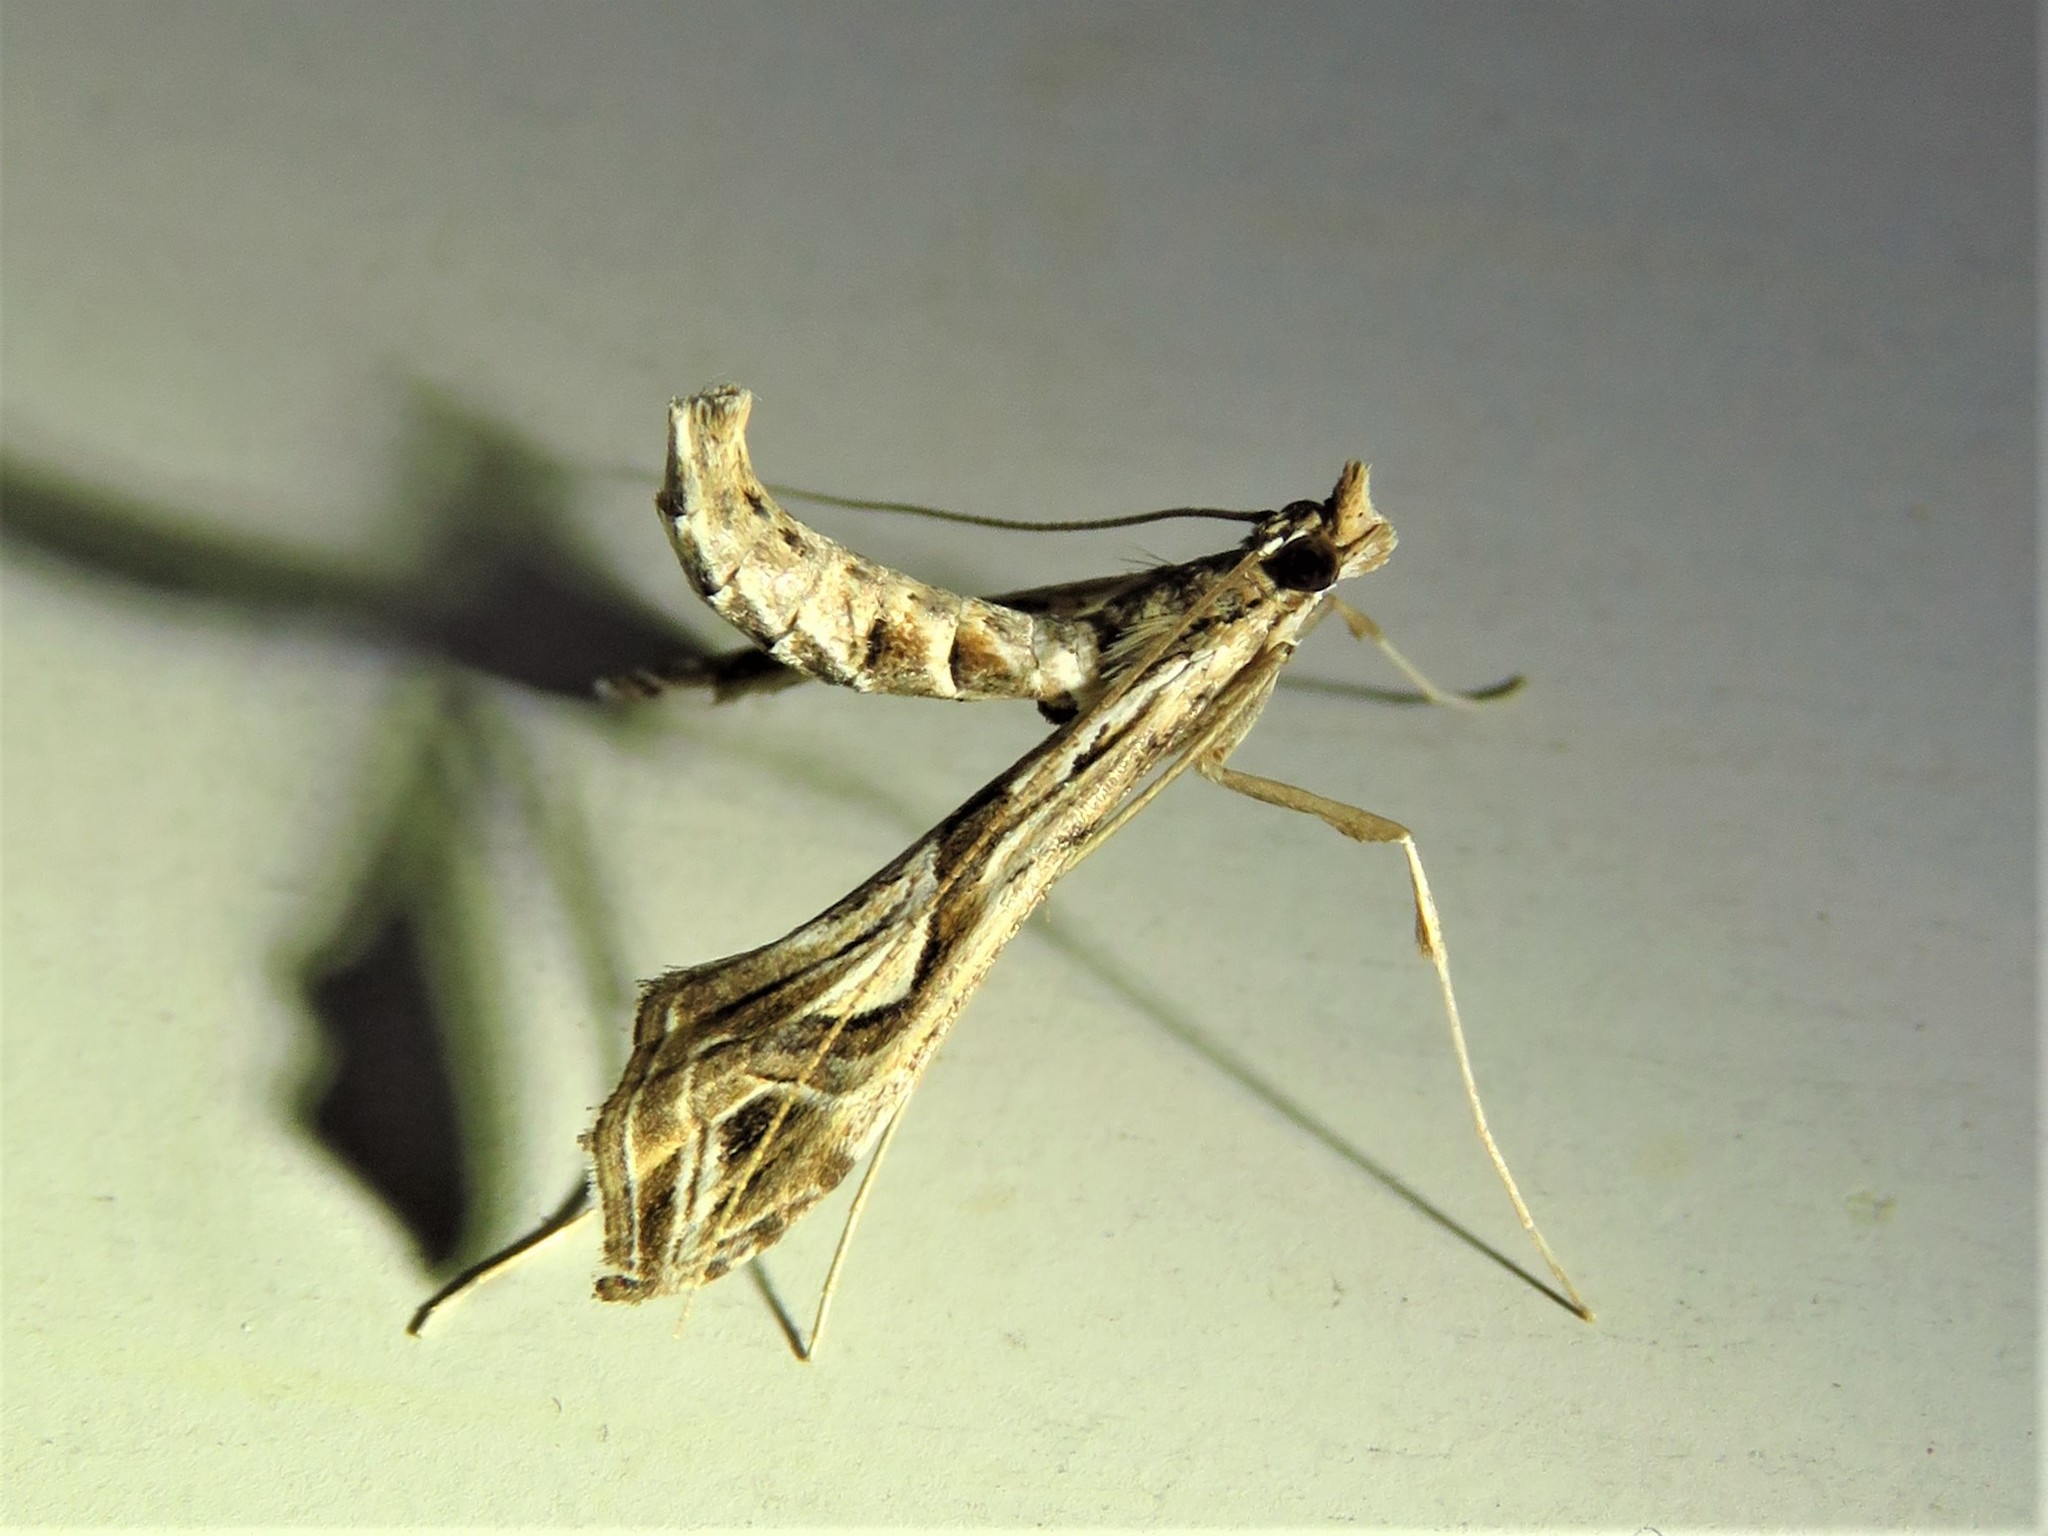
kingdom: Animalia
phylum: Arthropoda
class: Insecta
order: Lepidoptera
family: Crambidae
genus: Lineodes
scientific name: Lineodes integra
